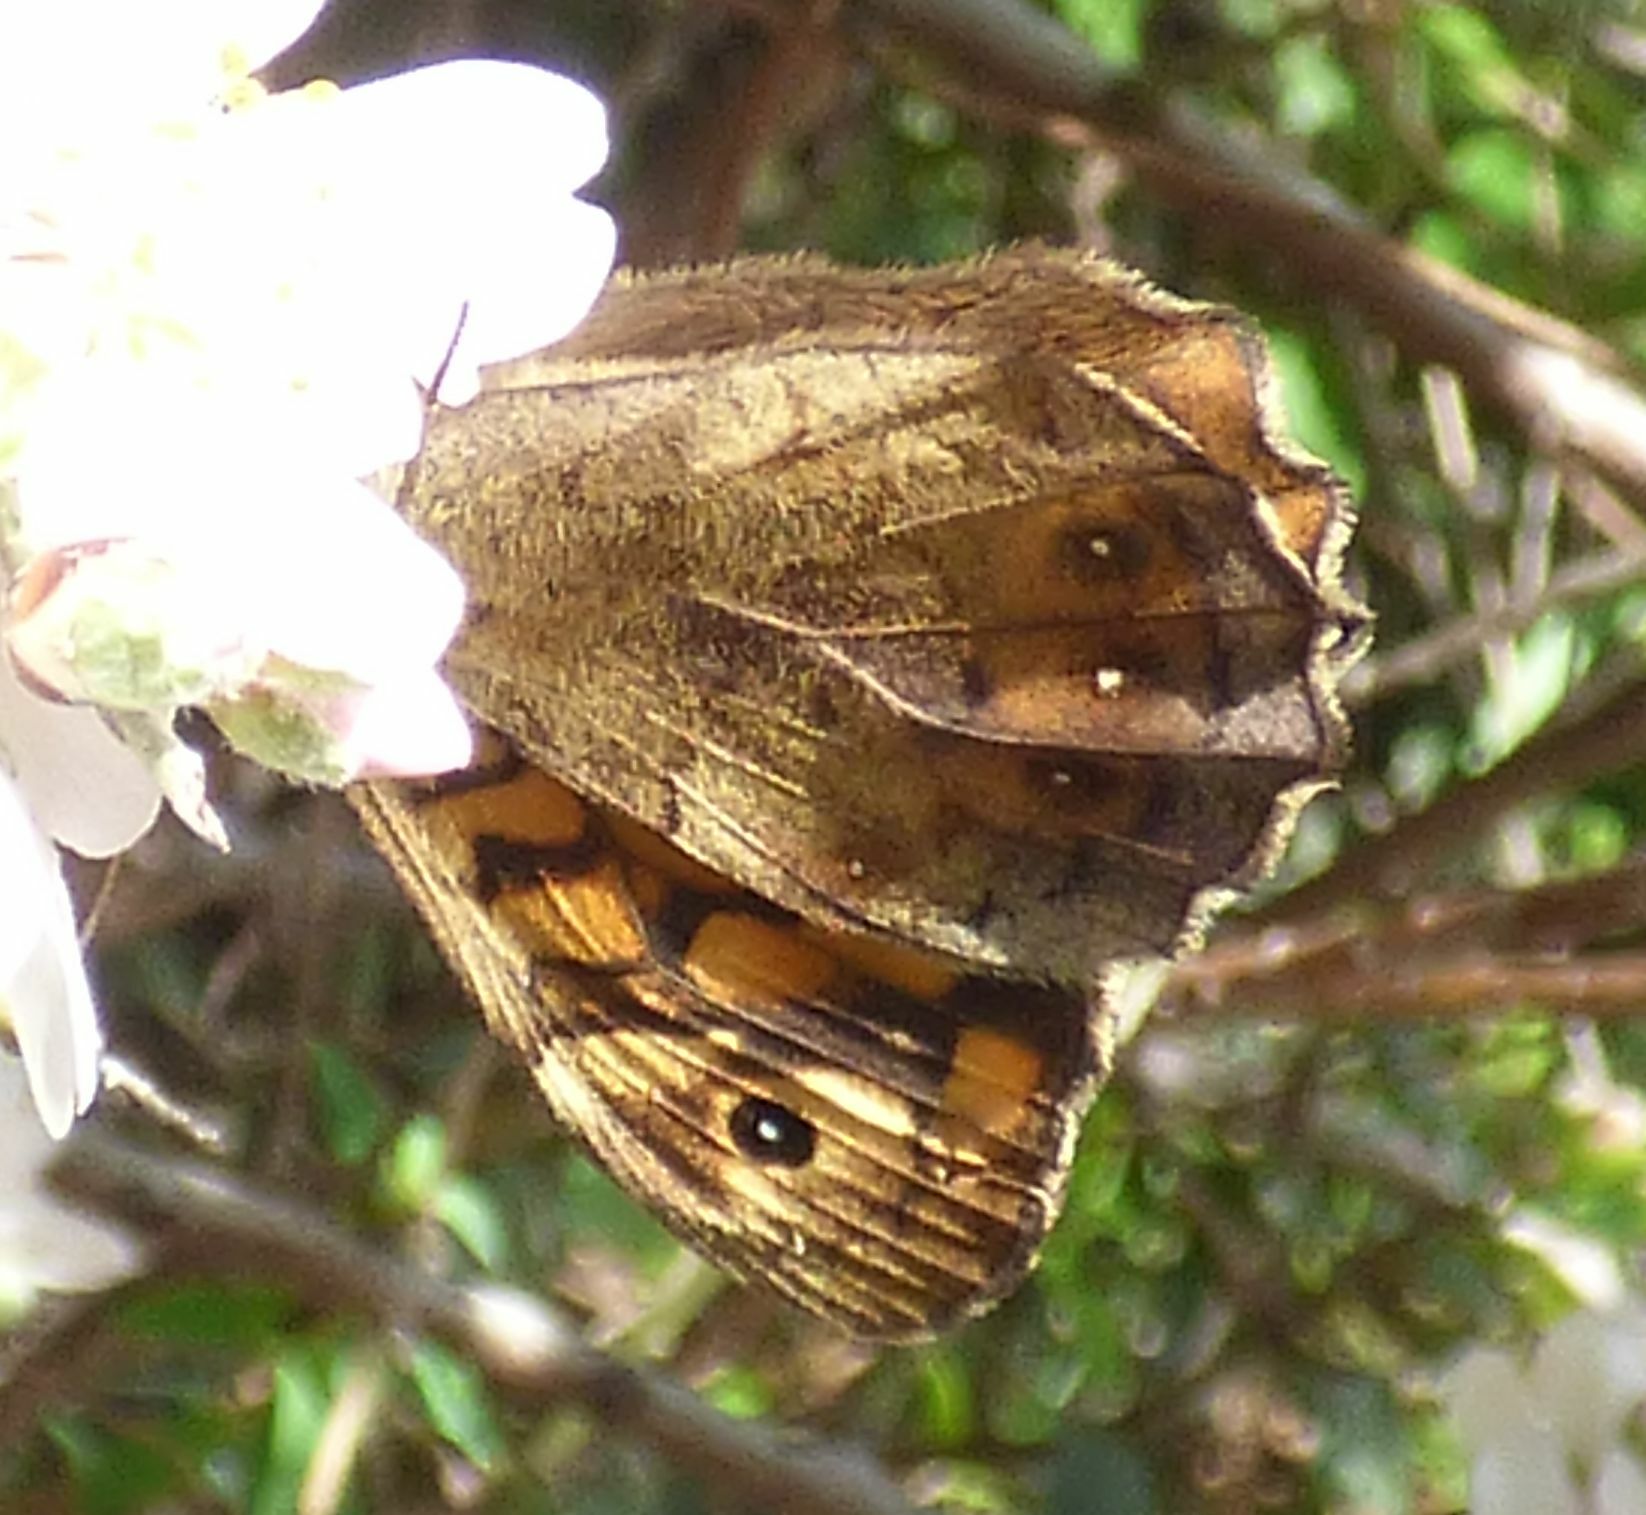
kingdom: Animalia
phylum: Arthropoda
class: Insecta
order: Lepidoptera
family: Nymphalidae
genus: Pararge
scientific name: Pararge aegeria
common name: Speckled wood
